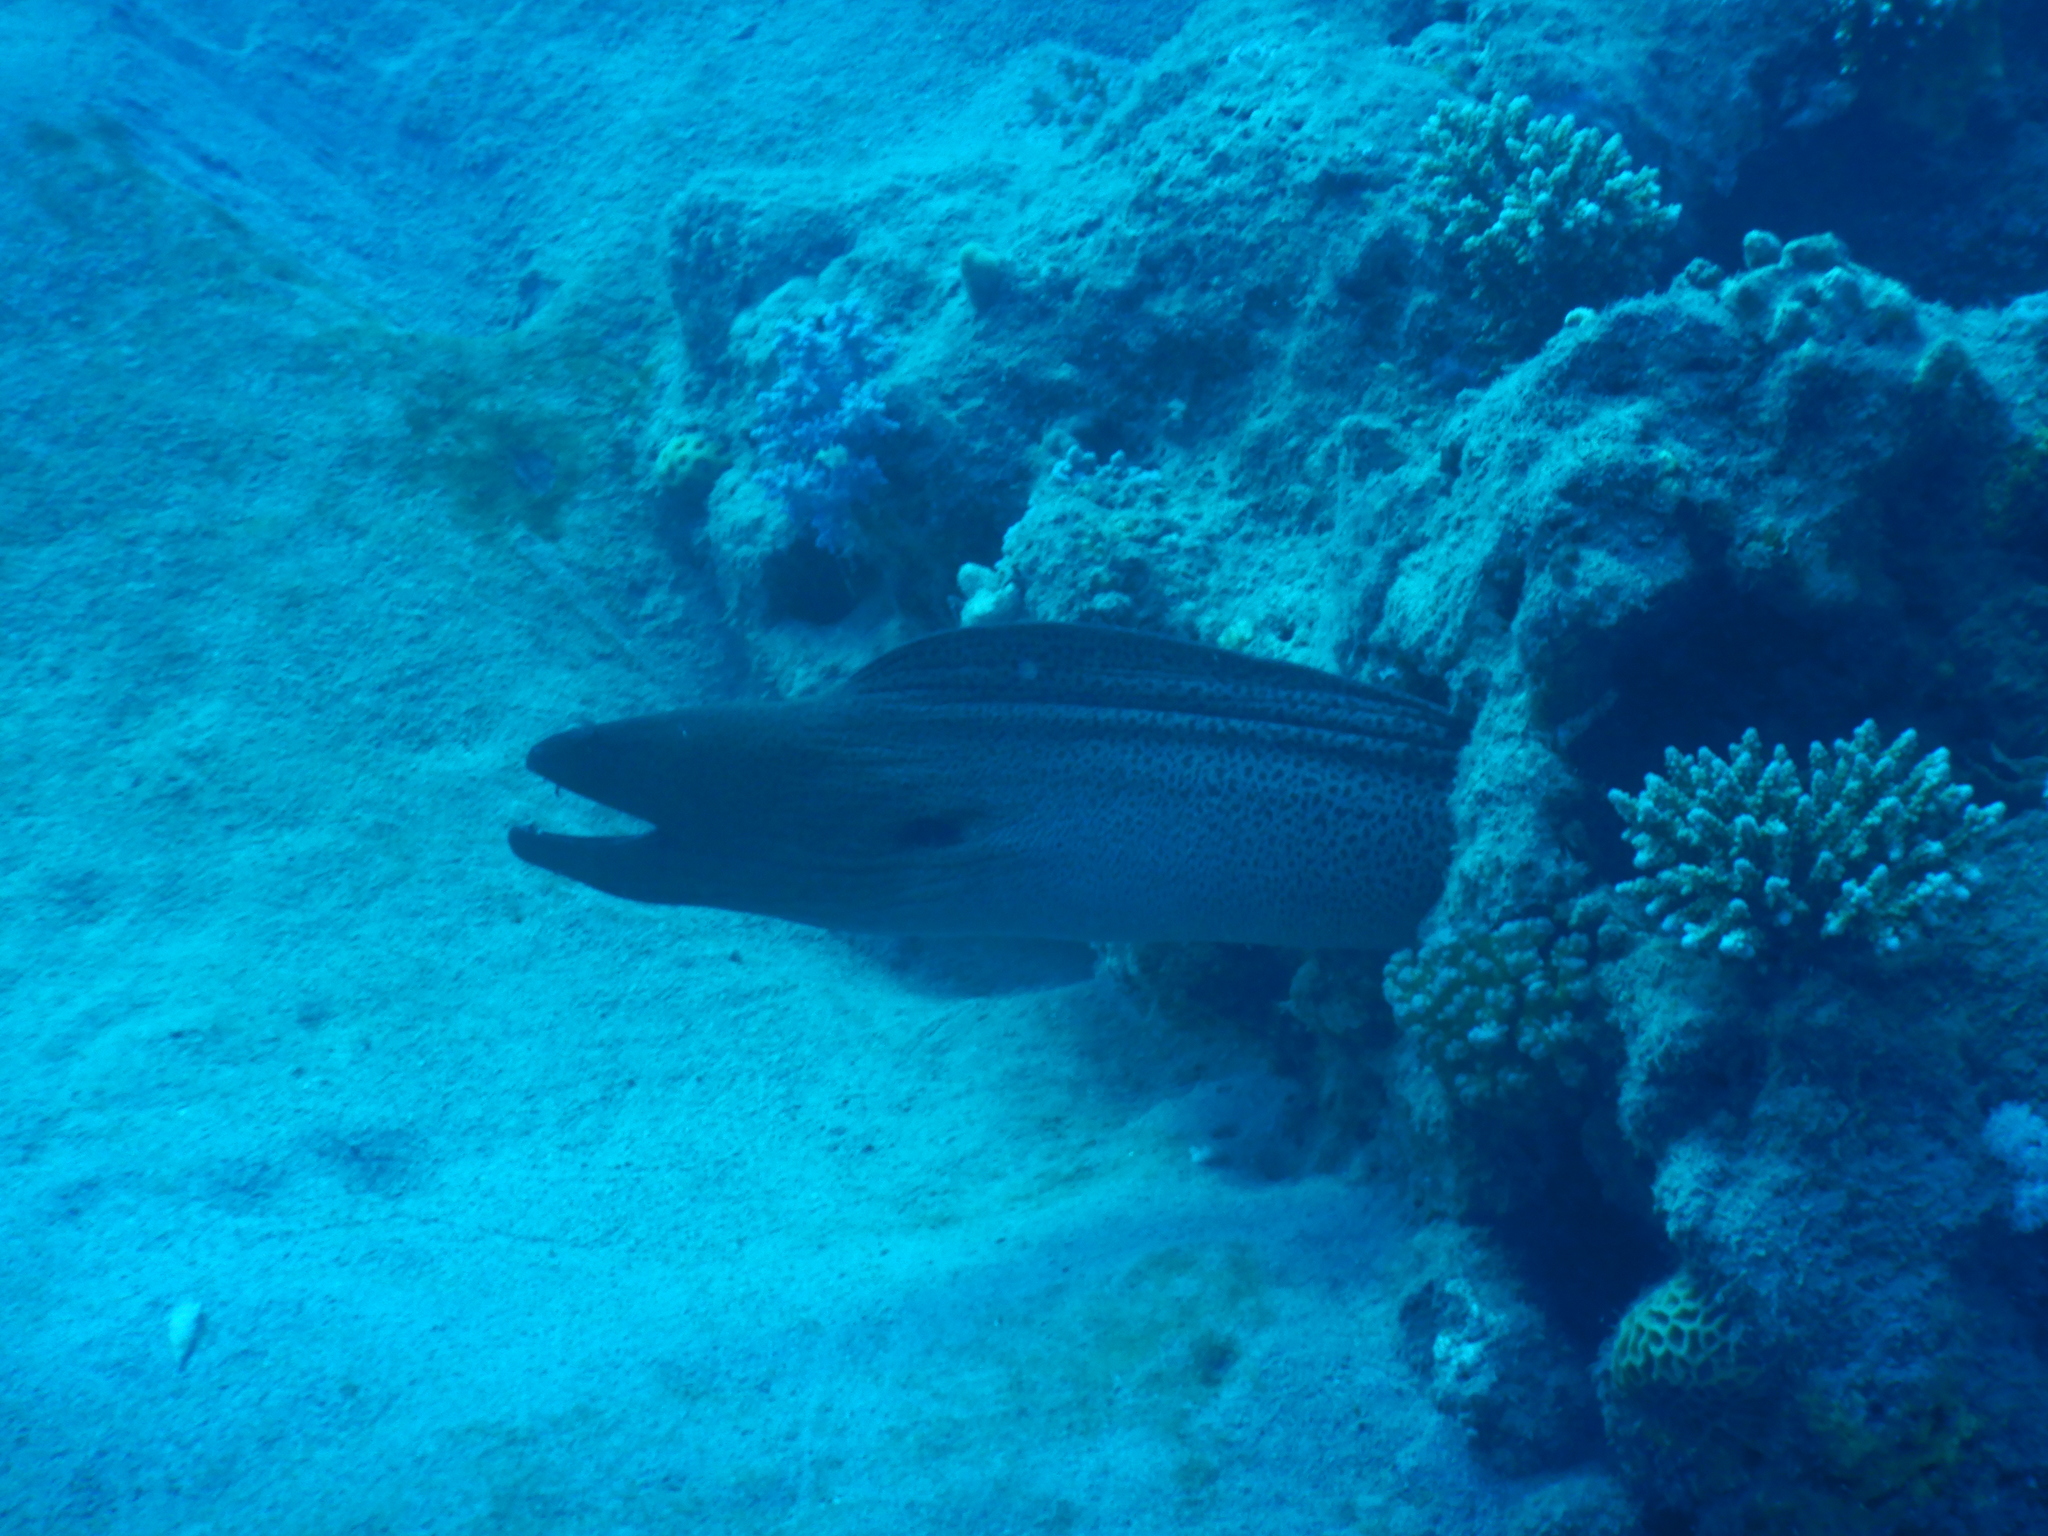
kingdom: Animalia
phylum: Chordata
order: Anguilliformes
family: Muraenidae
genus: Gymnothorax
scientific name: Gymnothorax javanicus
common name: Giant moray
